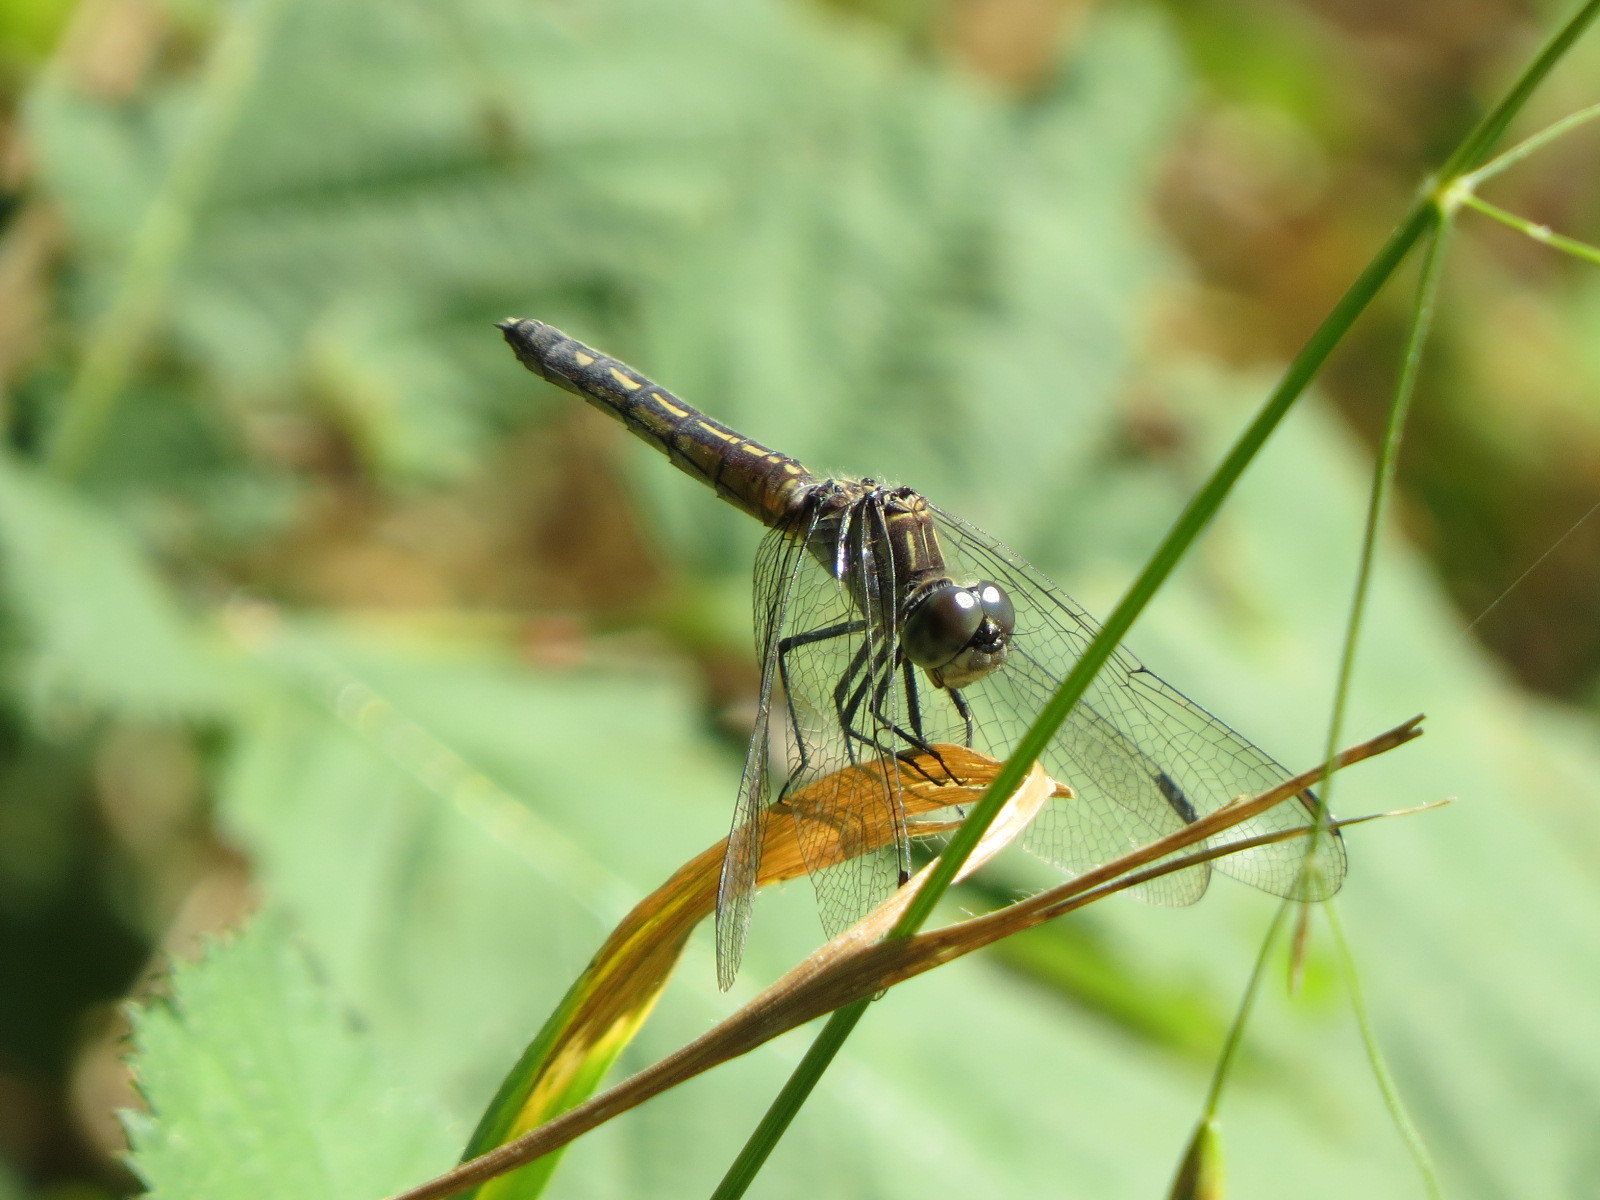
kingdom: Animalia
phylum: Arthropoda
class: Insecta
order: Odonata
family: Libellulidae
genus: Pachydiplax
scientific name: Pachydiplax longipennis
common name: Blue dasher
